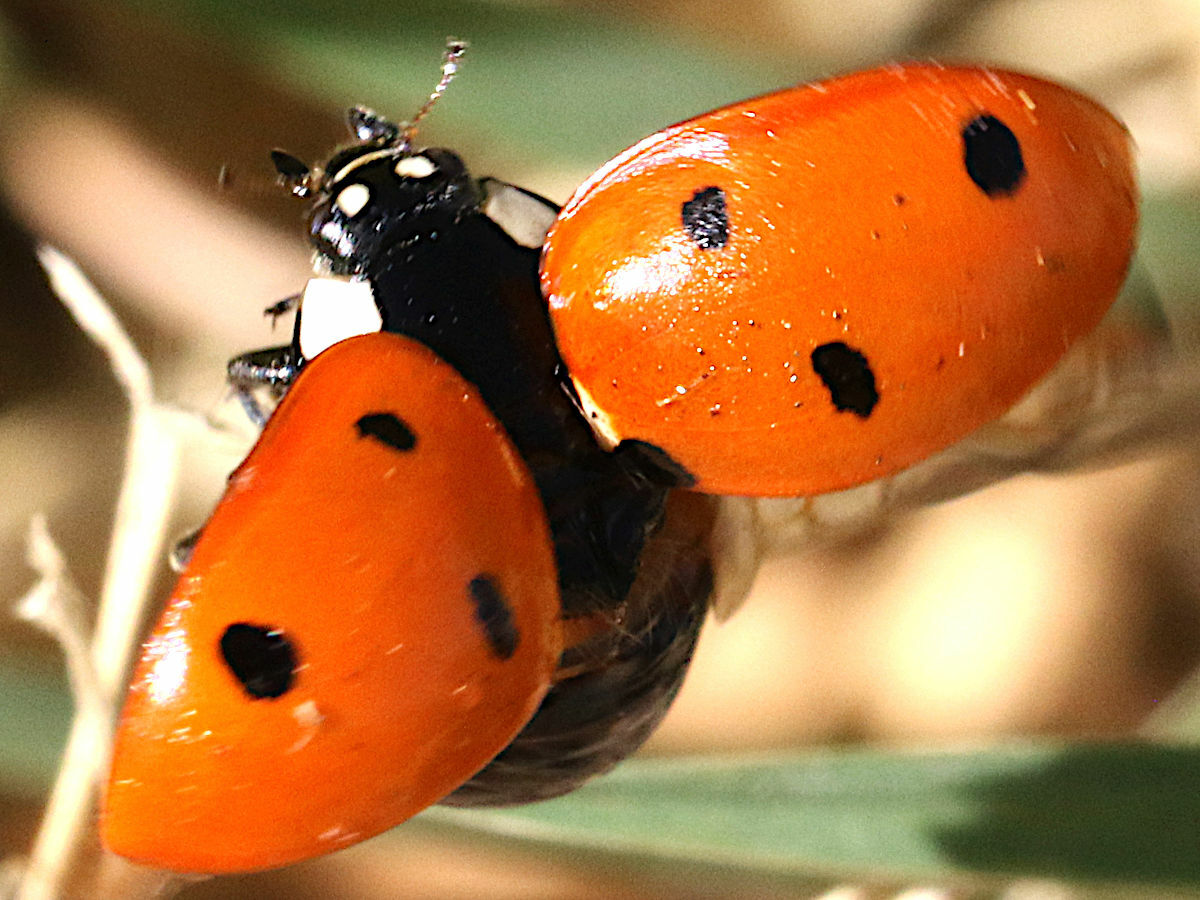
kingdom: Animalia
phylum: Arthropoda
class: Insecta
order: Coleoptera
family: Coccinellidae
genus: Coccinella
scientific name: Coccinella septempunctata
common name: Sevenspotted lady beetle
